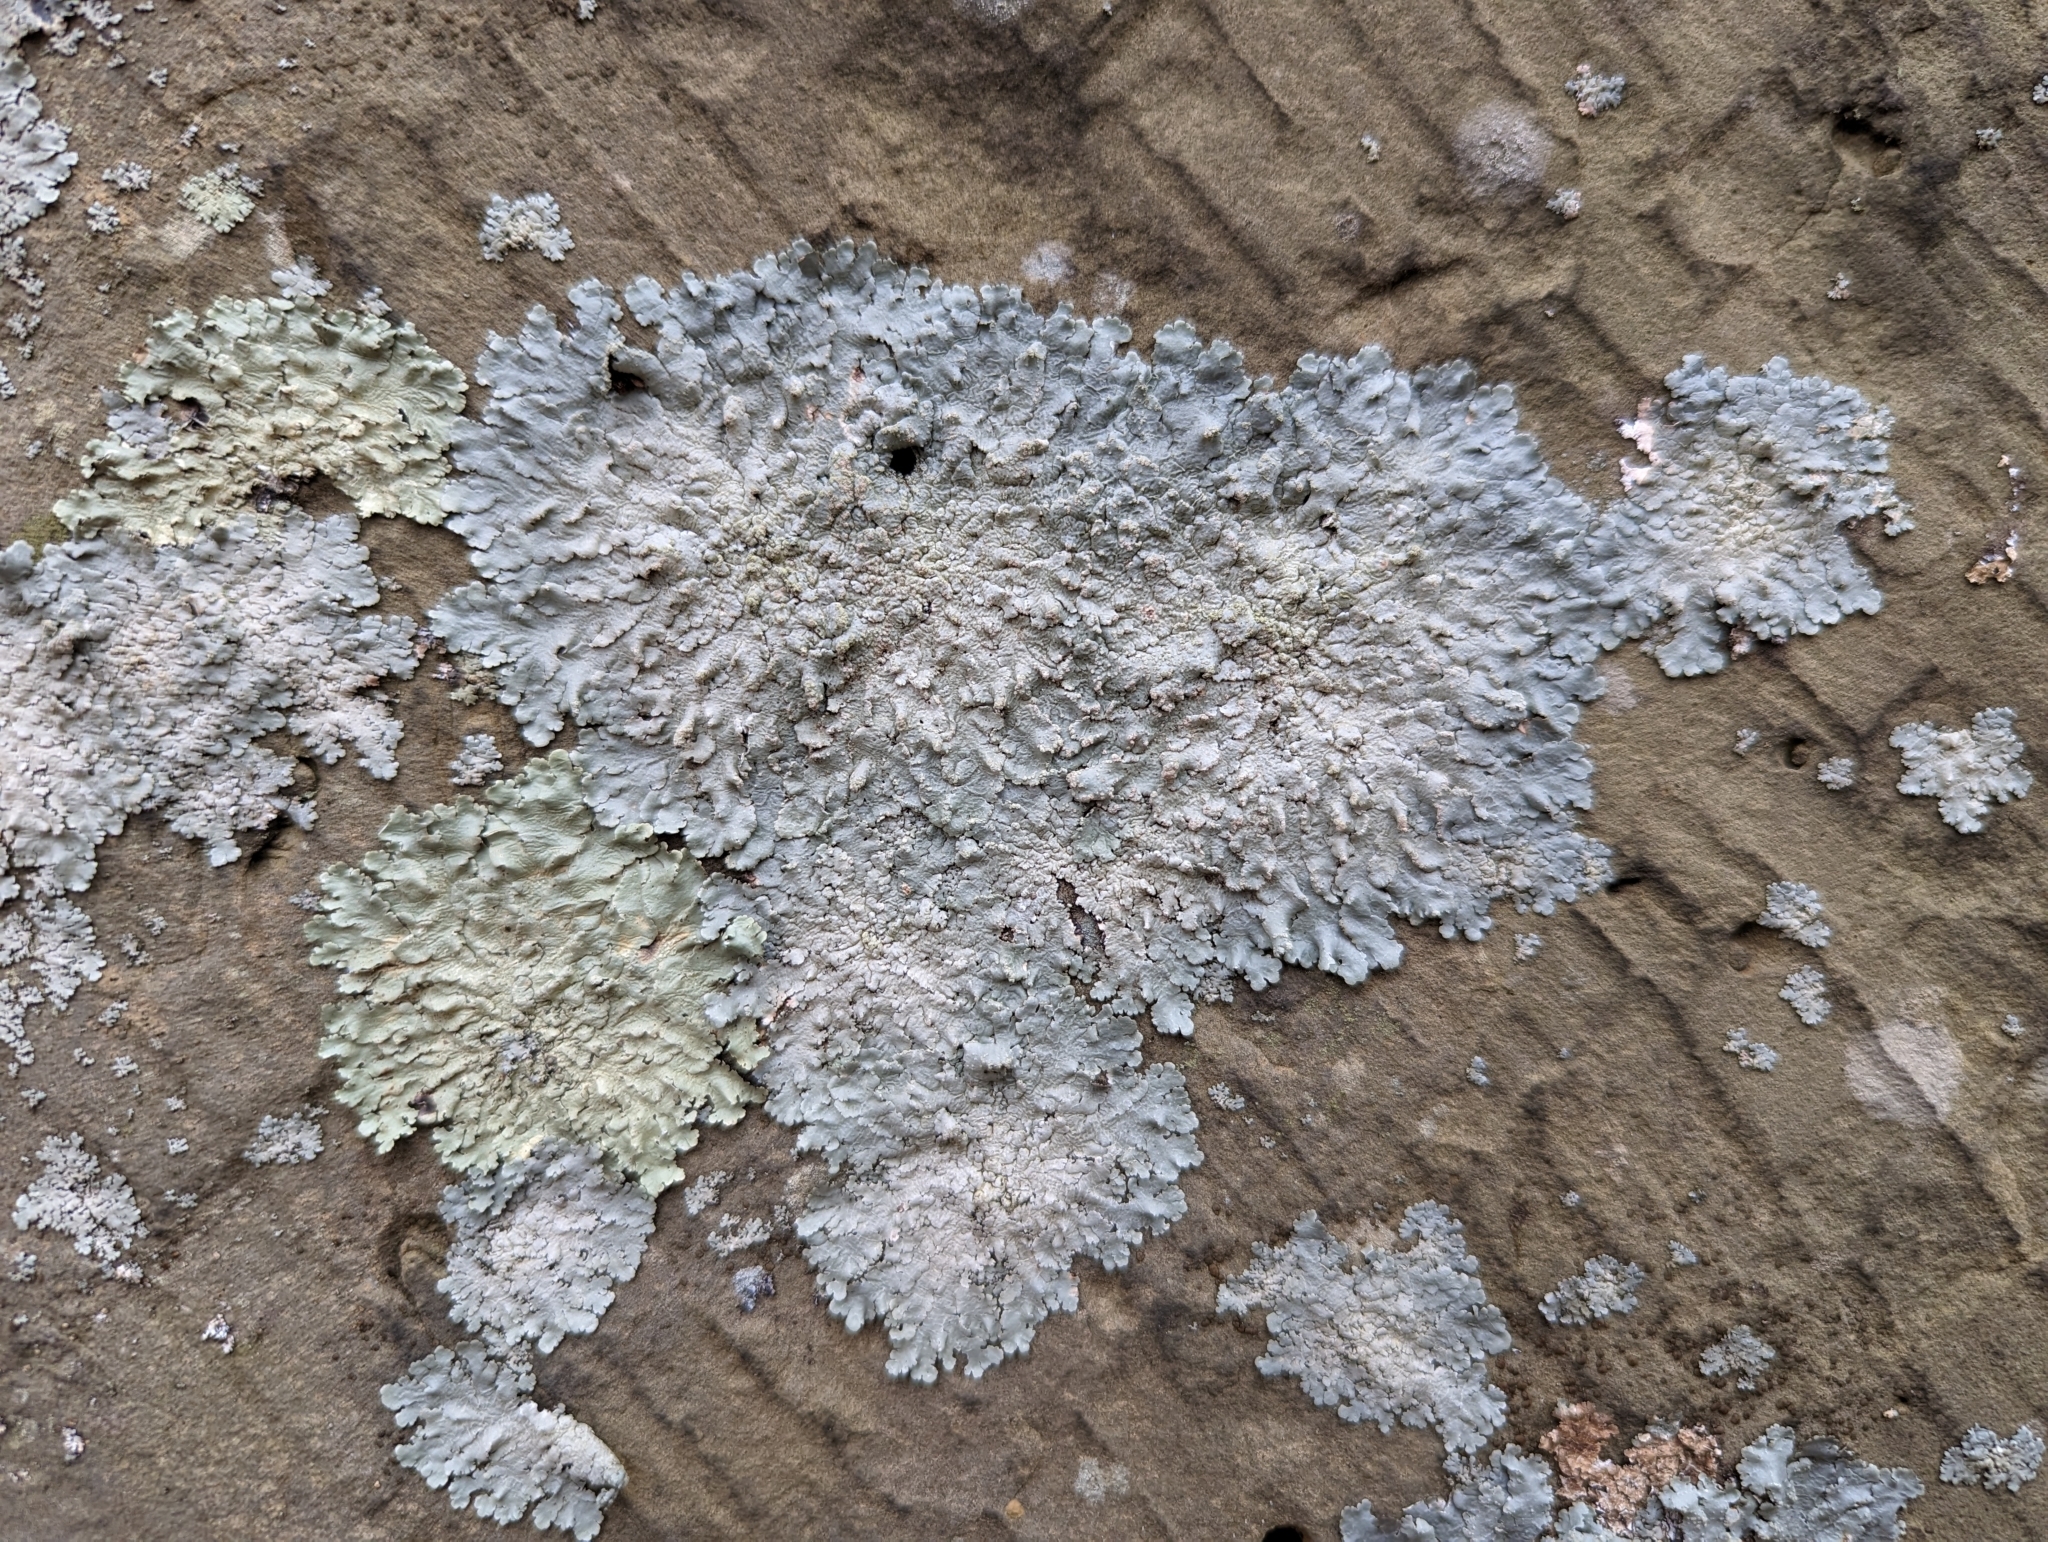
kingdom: Fungi
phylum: Ascomycota
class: Lecanoromycetes
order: Lecanorales
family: Parmeliaceae
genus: Canoparmelia
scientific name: Canoparmelia texana
